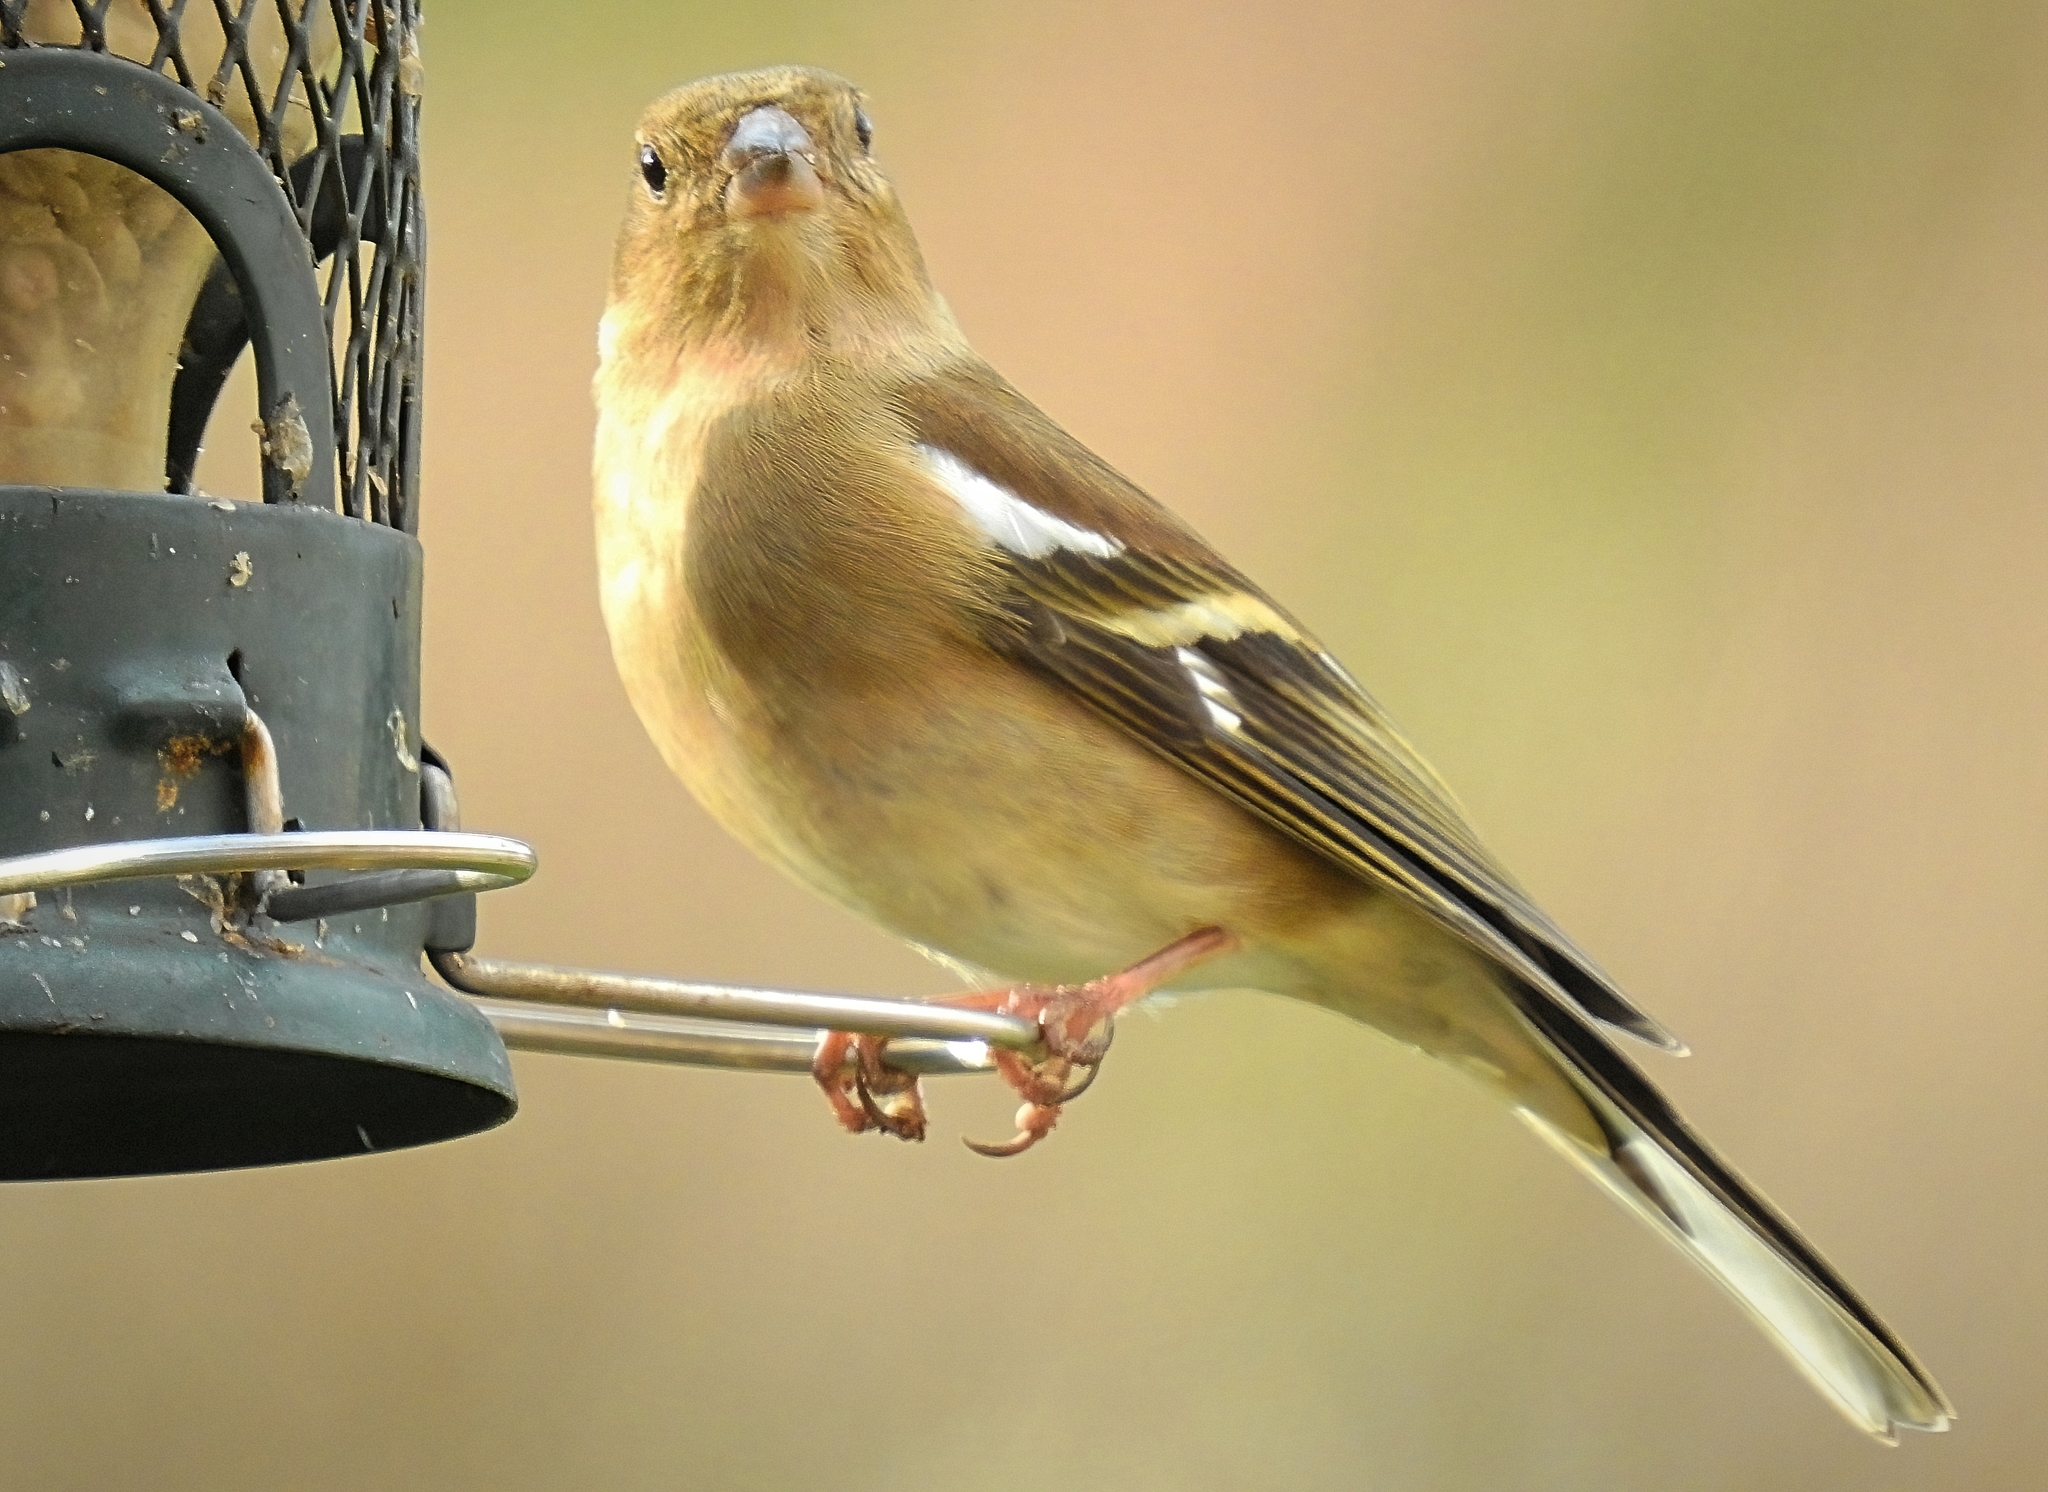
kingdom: Animalia
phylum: Chordata
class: Aves
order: Passeriformes
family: Fringillidae
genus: Fringilla
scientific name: Fringilla coelebs
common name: Common chaffinch
